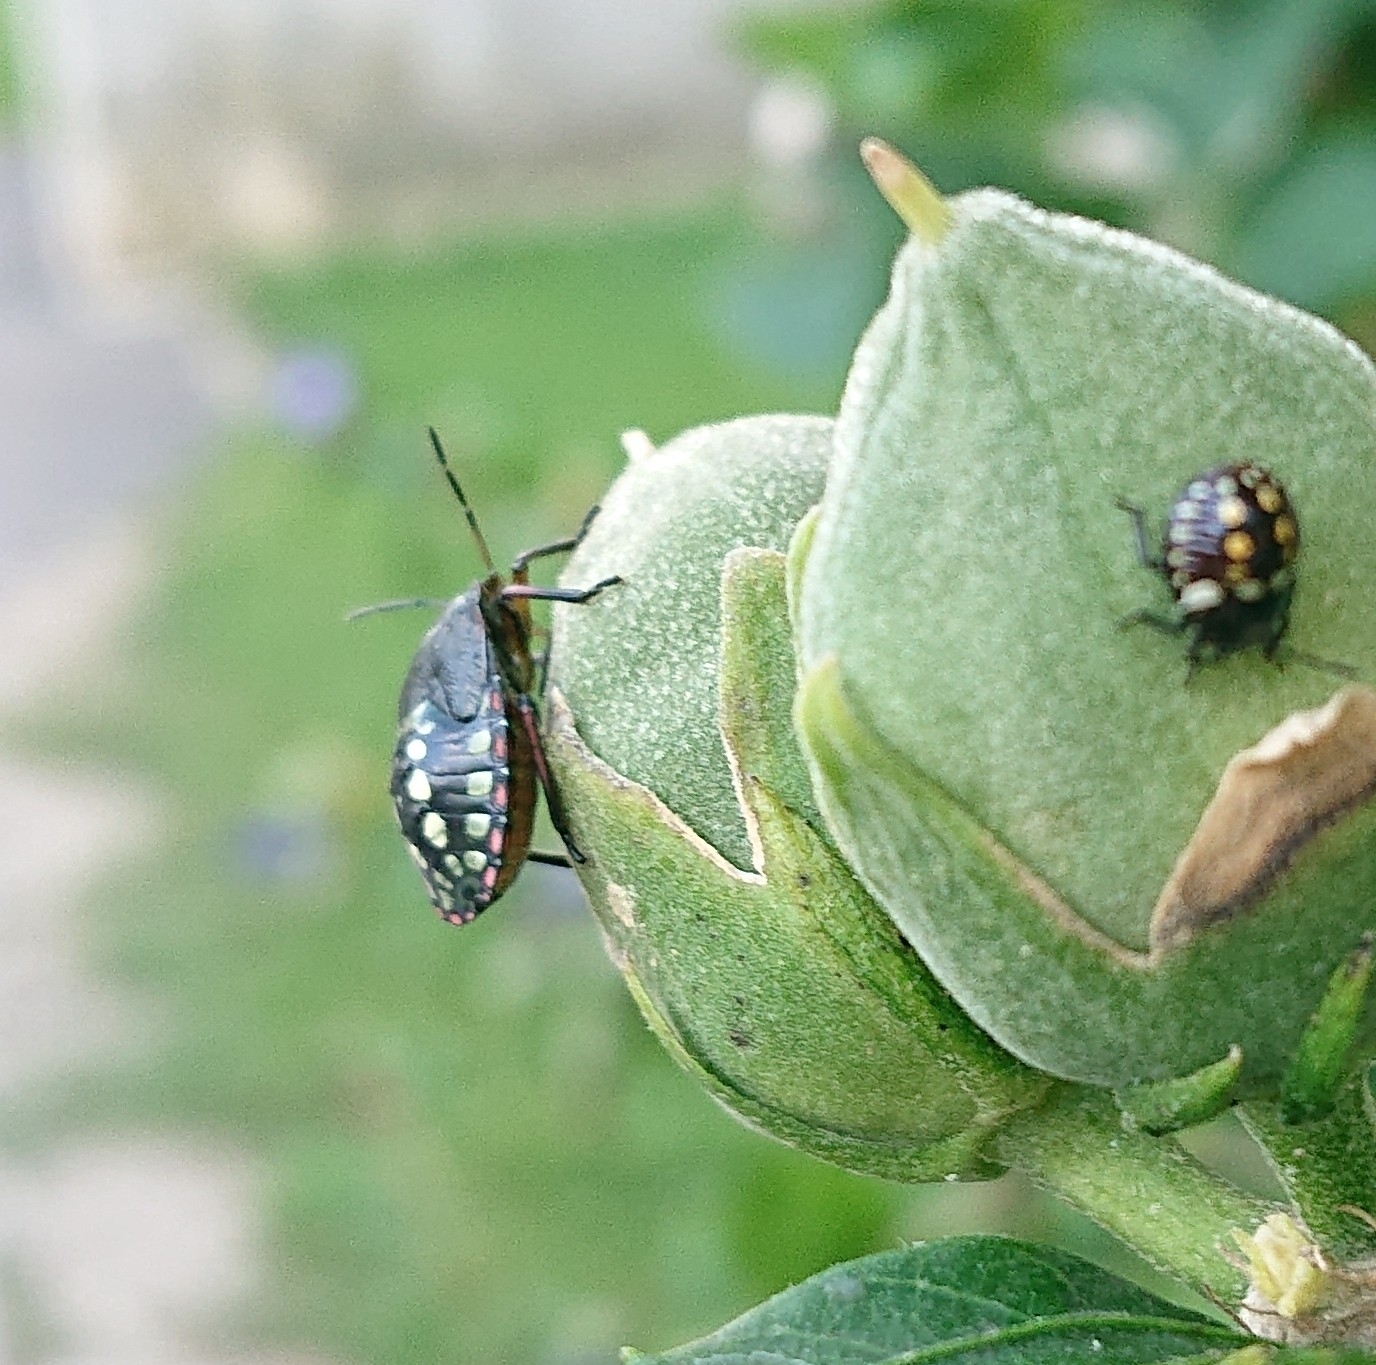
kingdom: Animalia
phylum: Arthropoda
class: Insecta
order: Hemiptera
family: Pentatomidae
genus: Nezara
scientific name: Nezara viridula
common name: Southern green stink bug
